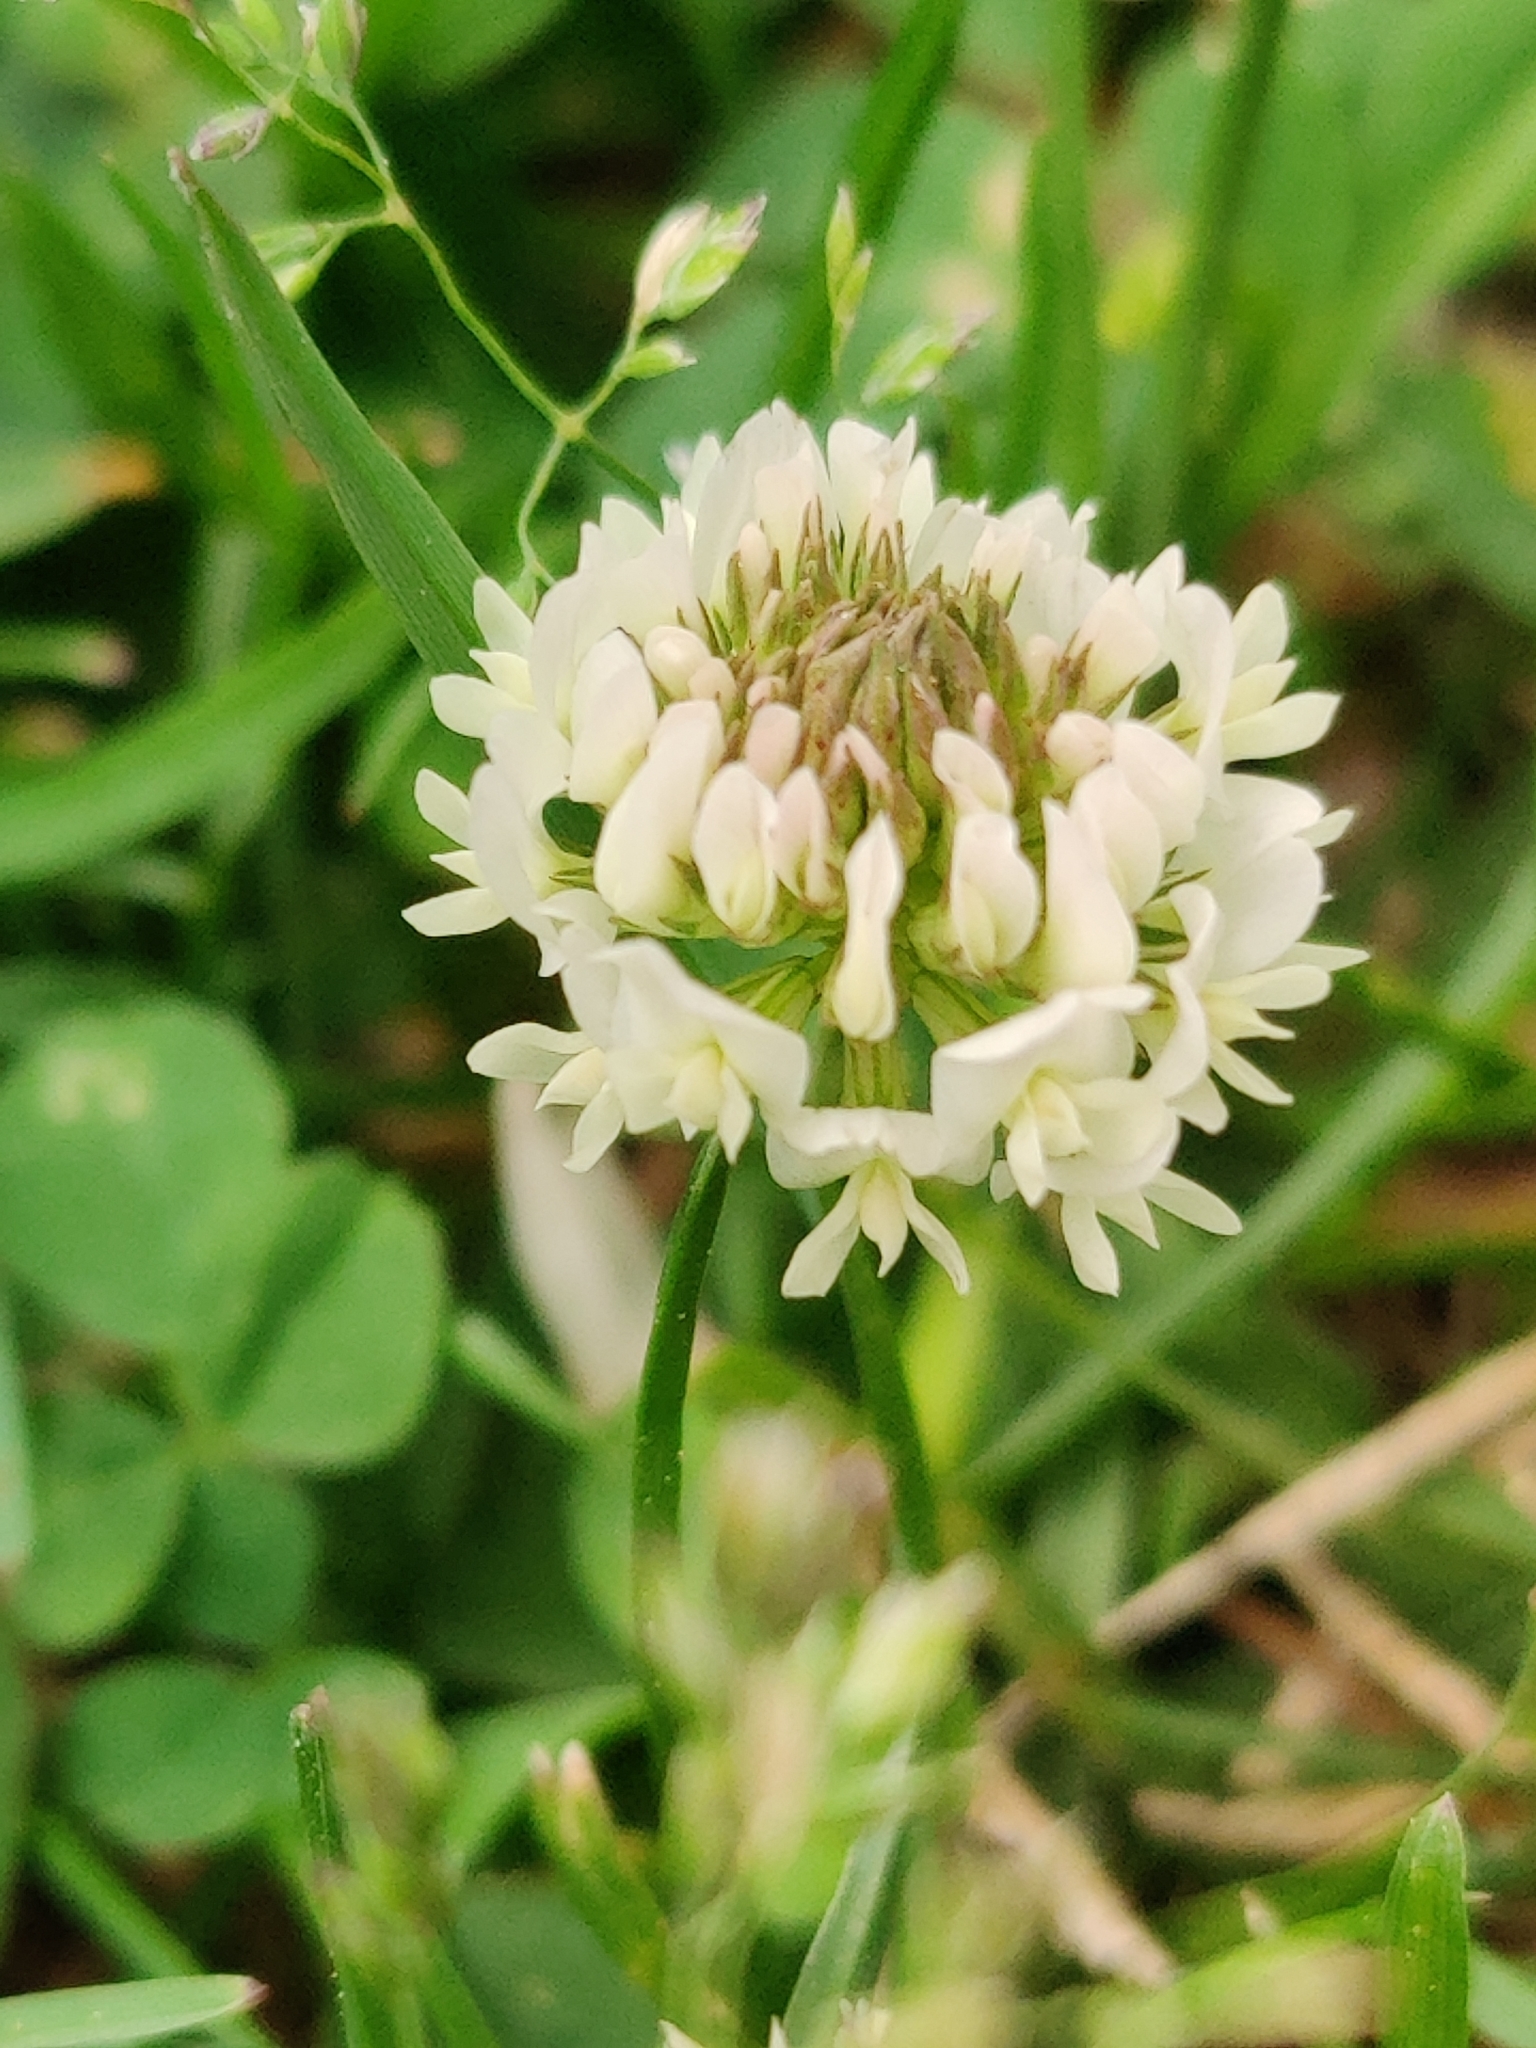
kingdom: Plantae
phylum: Tracheophyta
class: Magnoliopsida
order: Fabales
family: Fabaceae
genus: Trifolium
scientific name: Trifolium repens
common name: White clover
